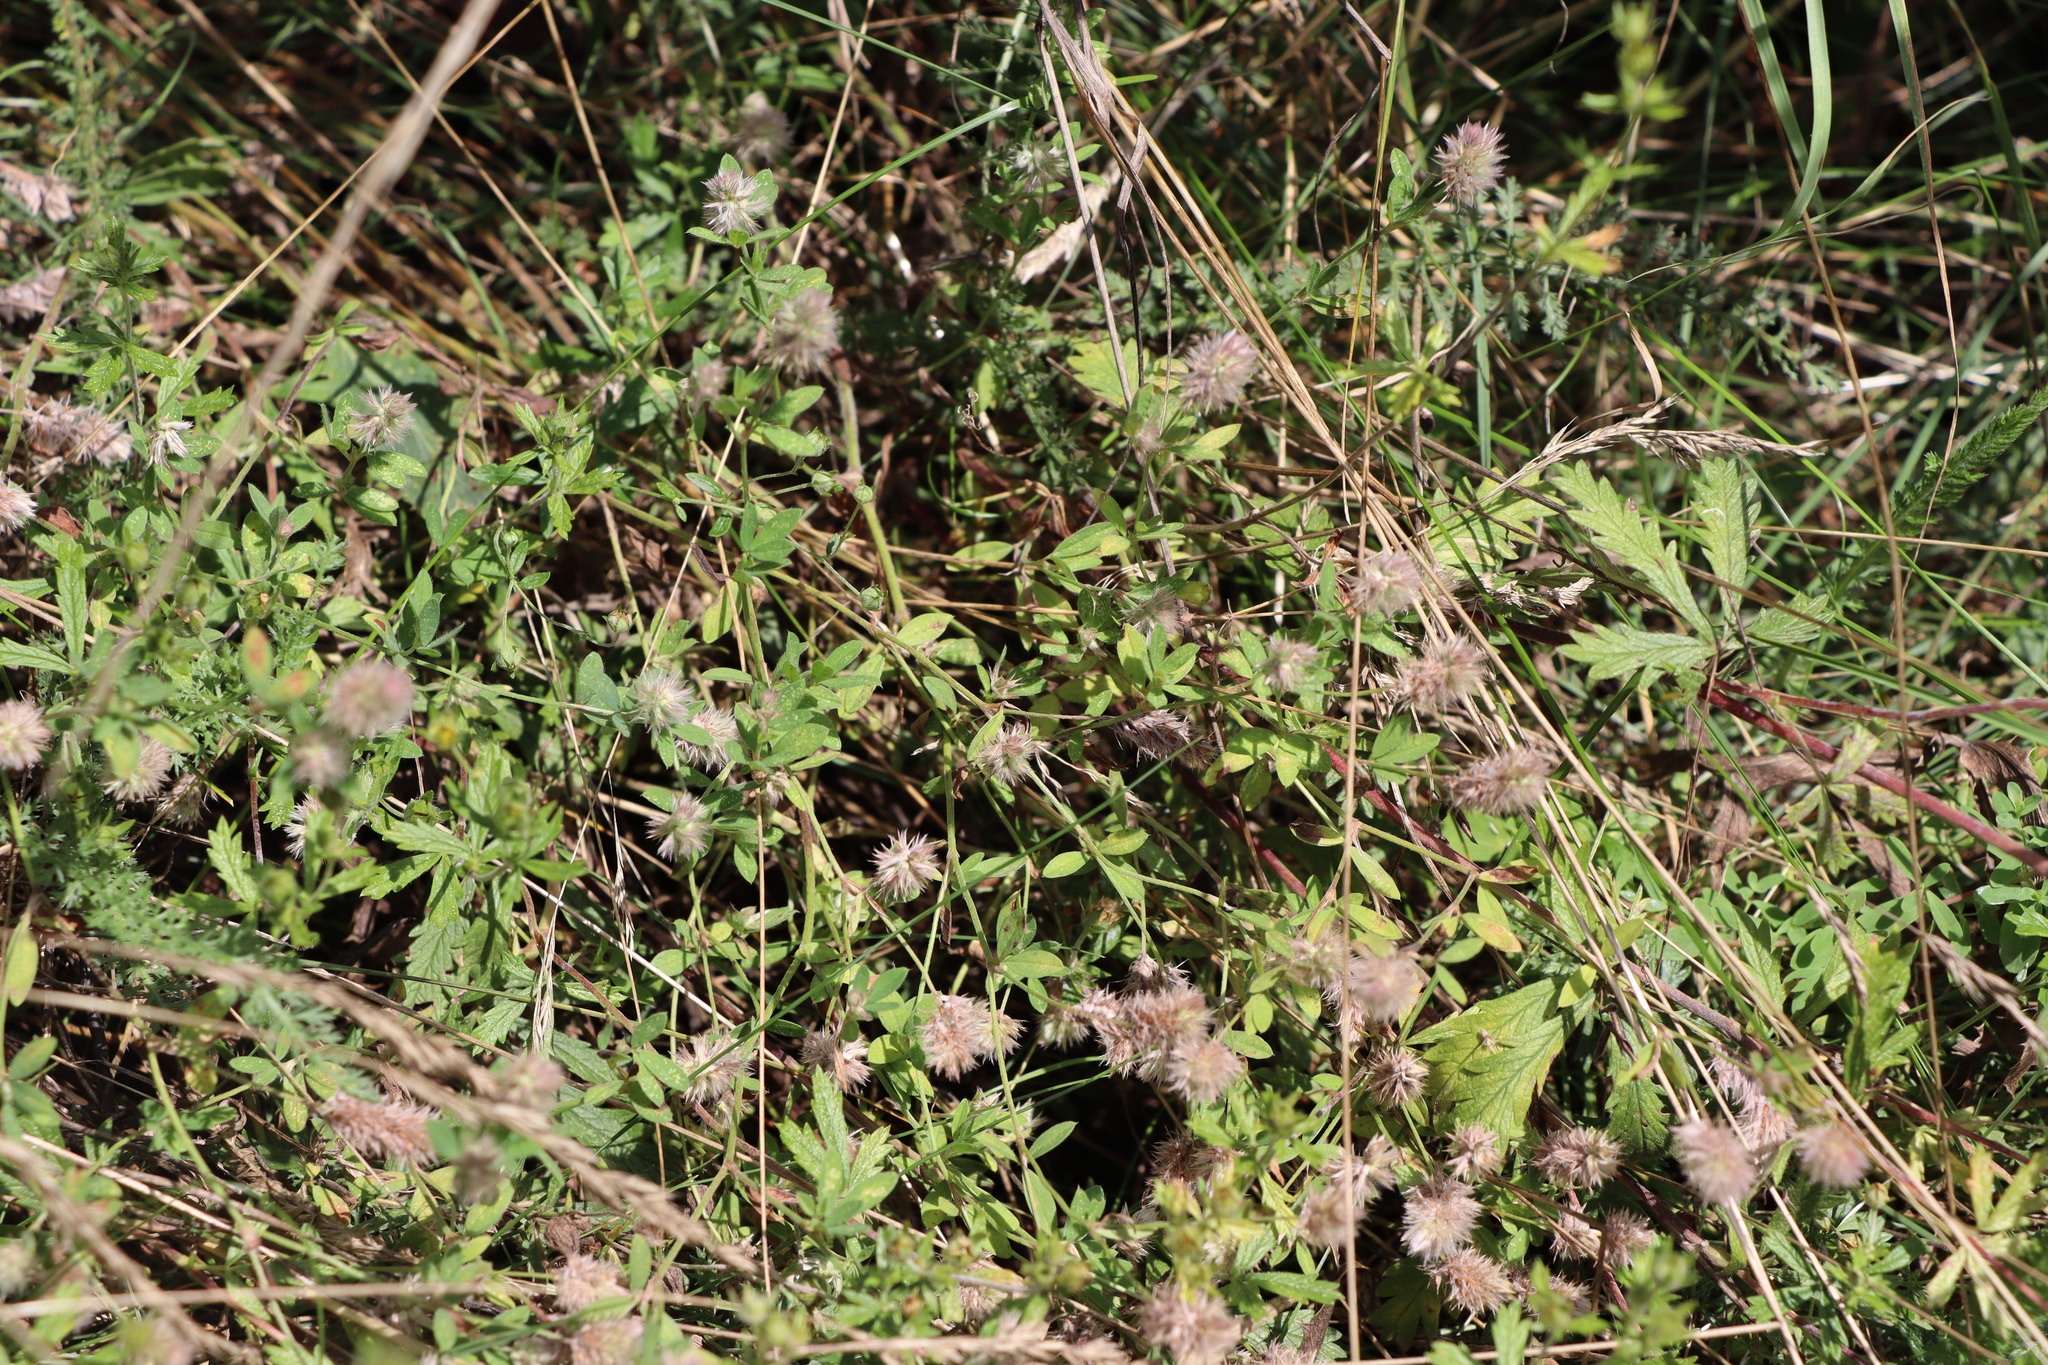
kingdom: Plantae
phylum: Tracheophyta
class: Magnoliopsida
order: Fabales
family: Fabaceae
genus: Trifolium
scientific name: Trifolium arvense
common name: Hare's-foot clover
